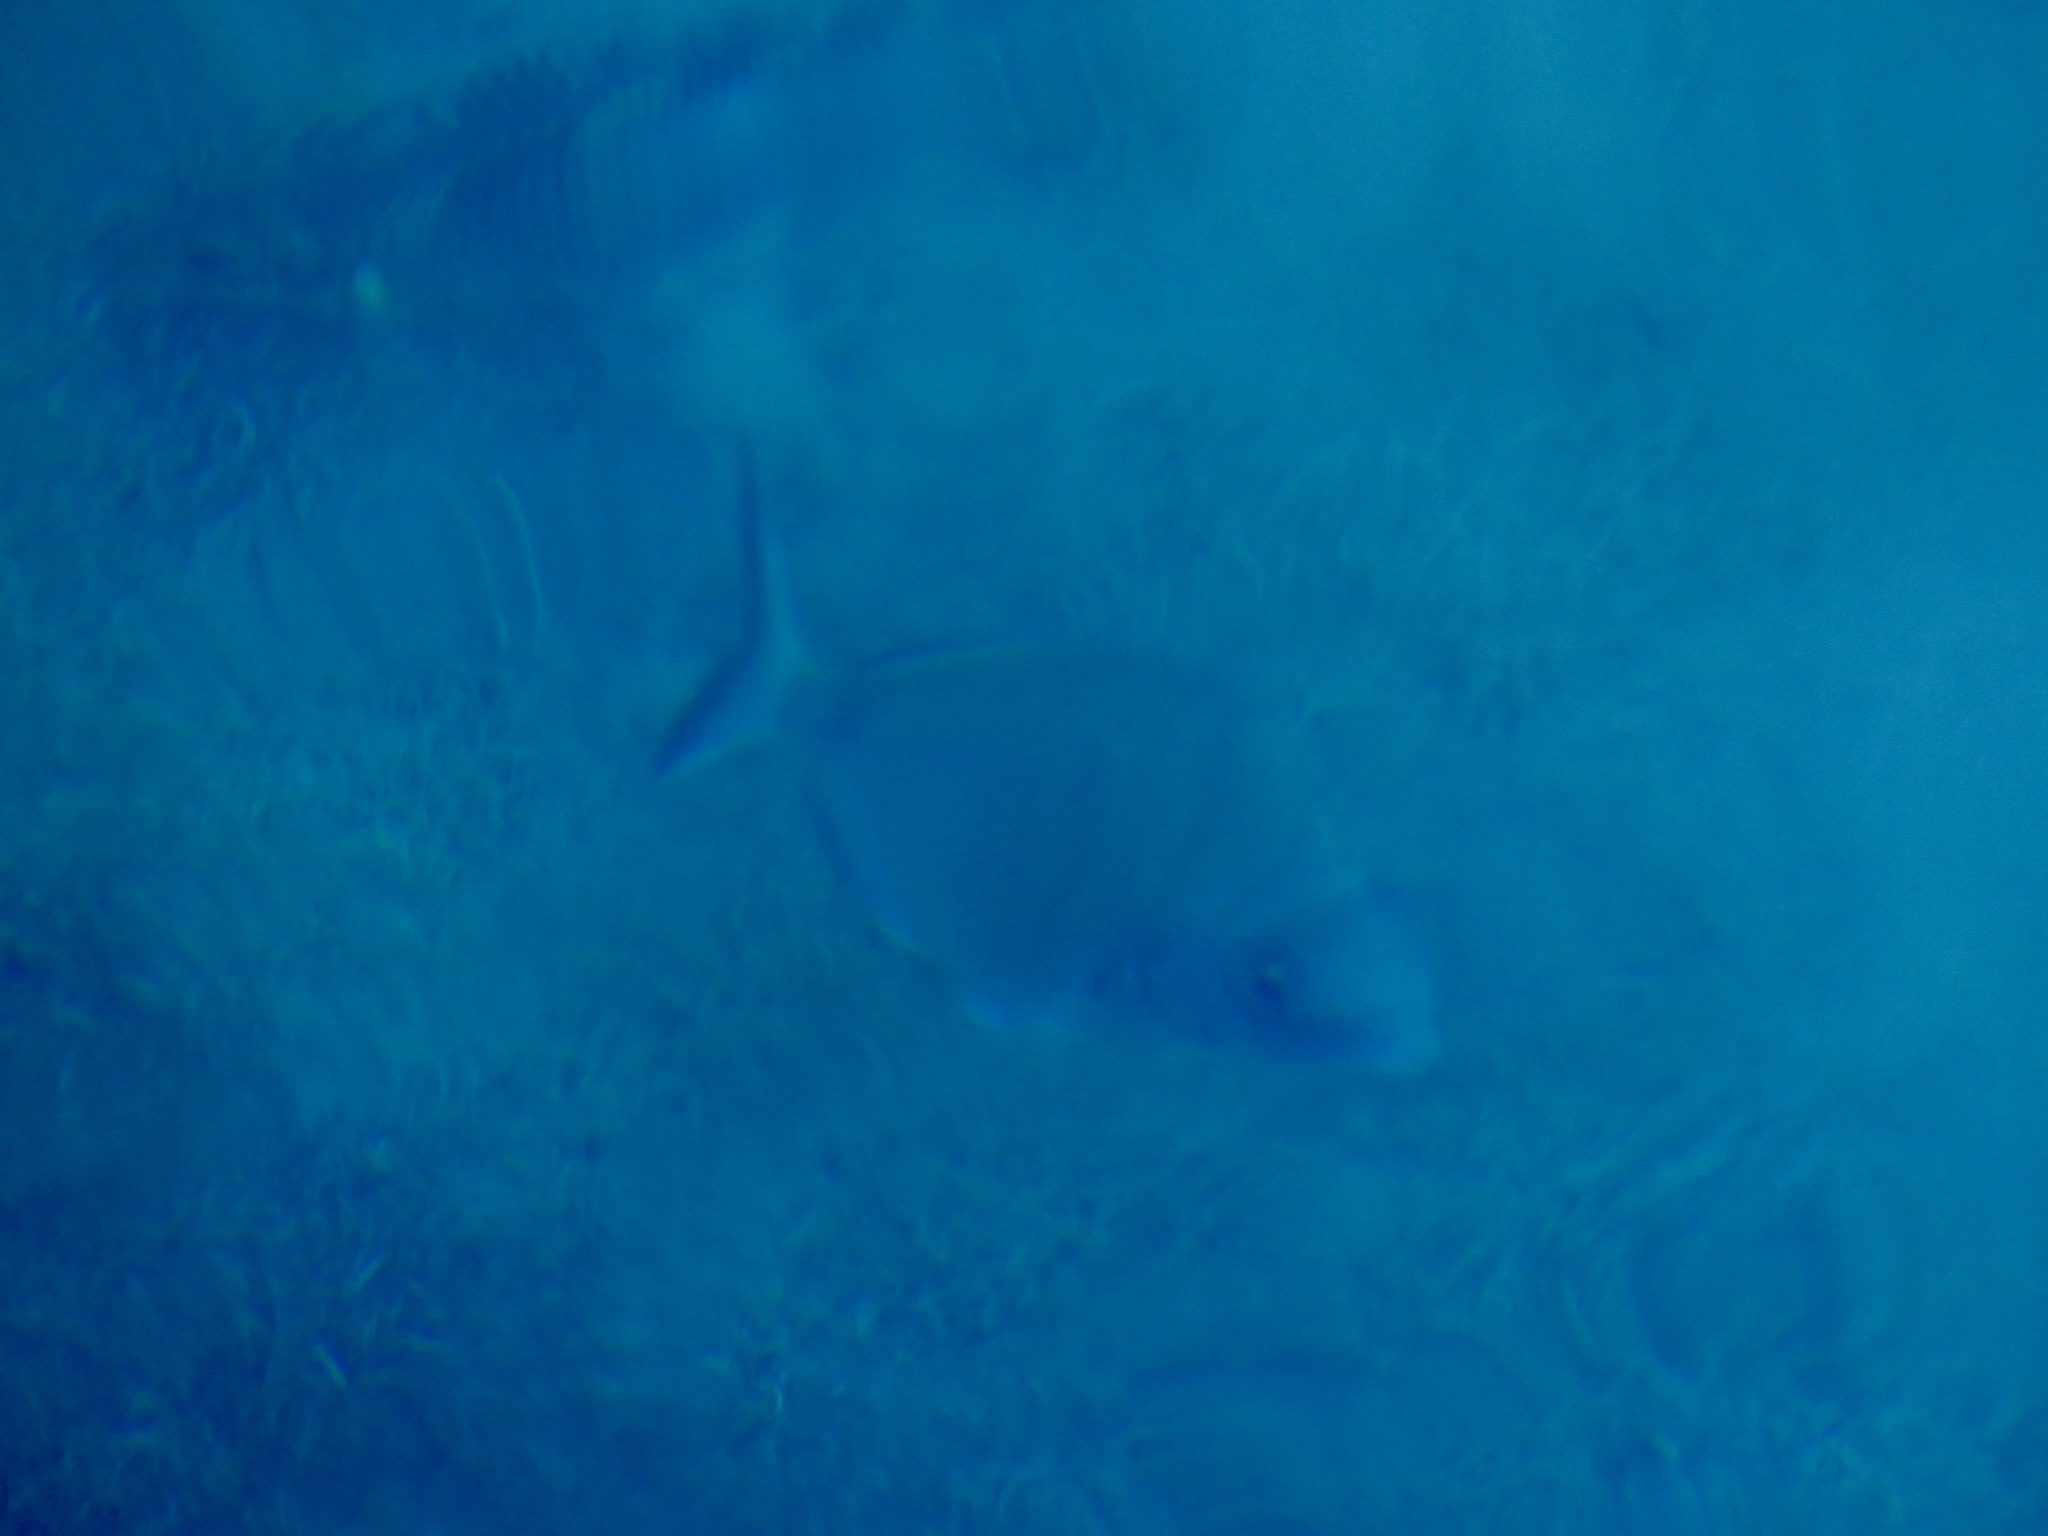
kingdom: Animalia
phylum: Chordata
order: Perciformes
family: Sparidae
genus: Diplodus
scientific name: Diplodus sargus
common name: White seabream
